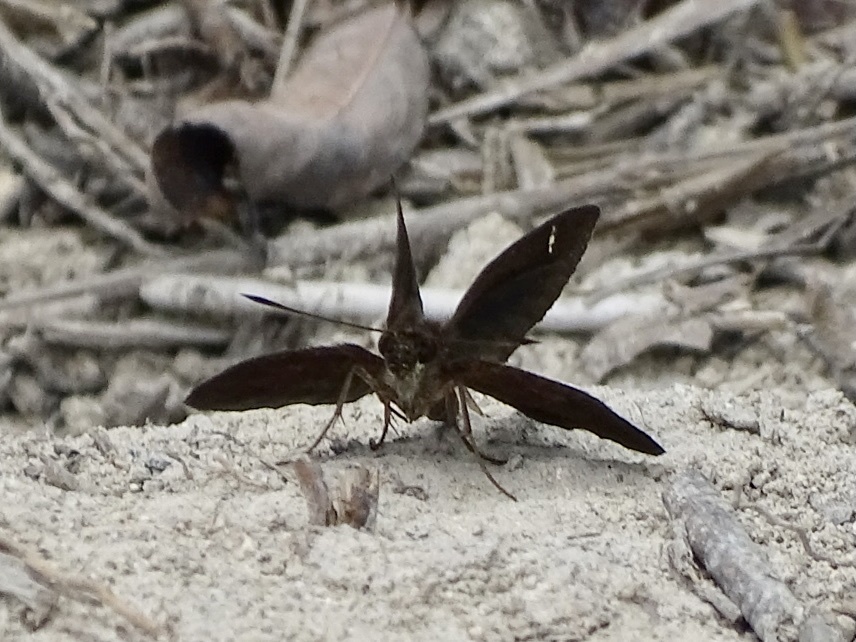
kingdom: Animalia
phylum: Arthropoda
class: Insecta
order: Lepidoptera
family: Hesperiidae
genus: Astictopterus
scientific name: Astictopterus jama
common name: Forest hopper
